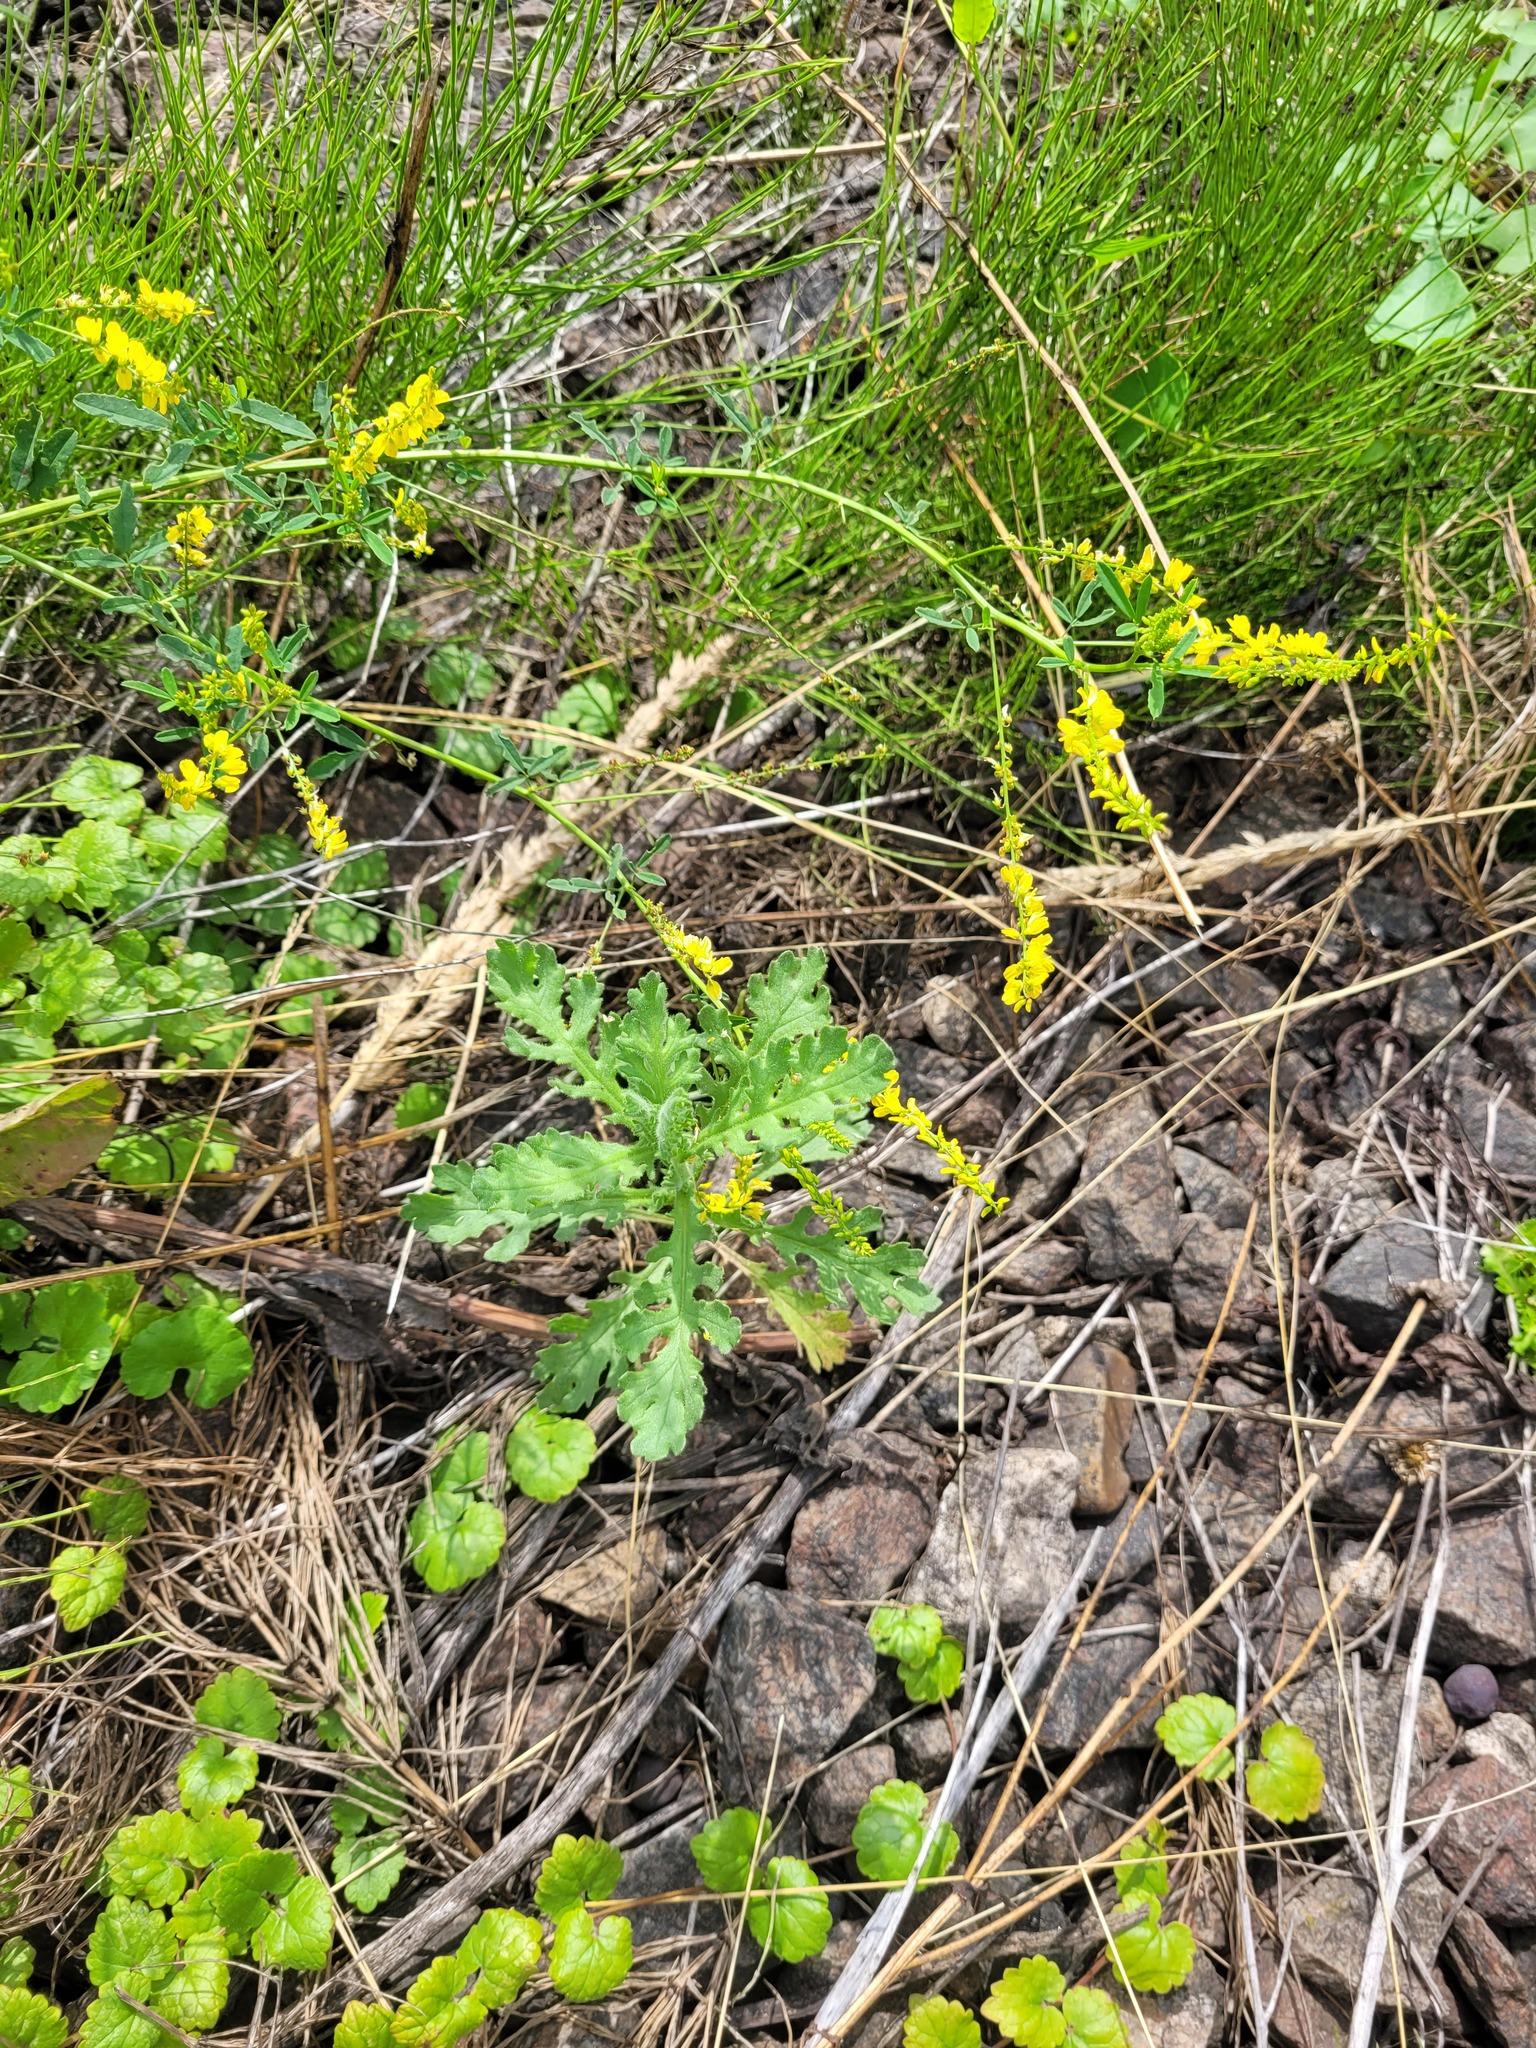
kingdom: Plantae
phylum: Tracheophyta
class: Magnoliopsida
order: Asterales
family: Asteraceae
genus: Senecio
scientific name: Senecio viscosus
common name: Sticky groundsel
